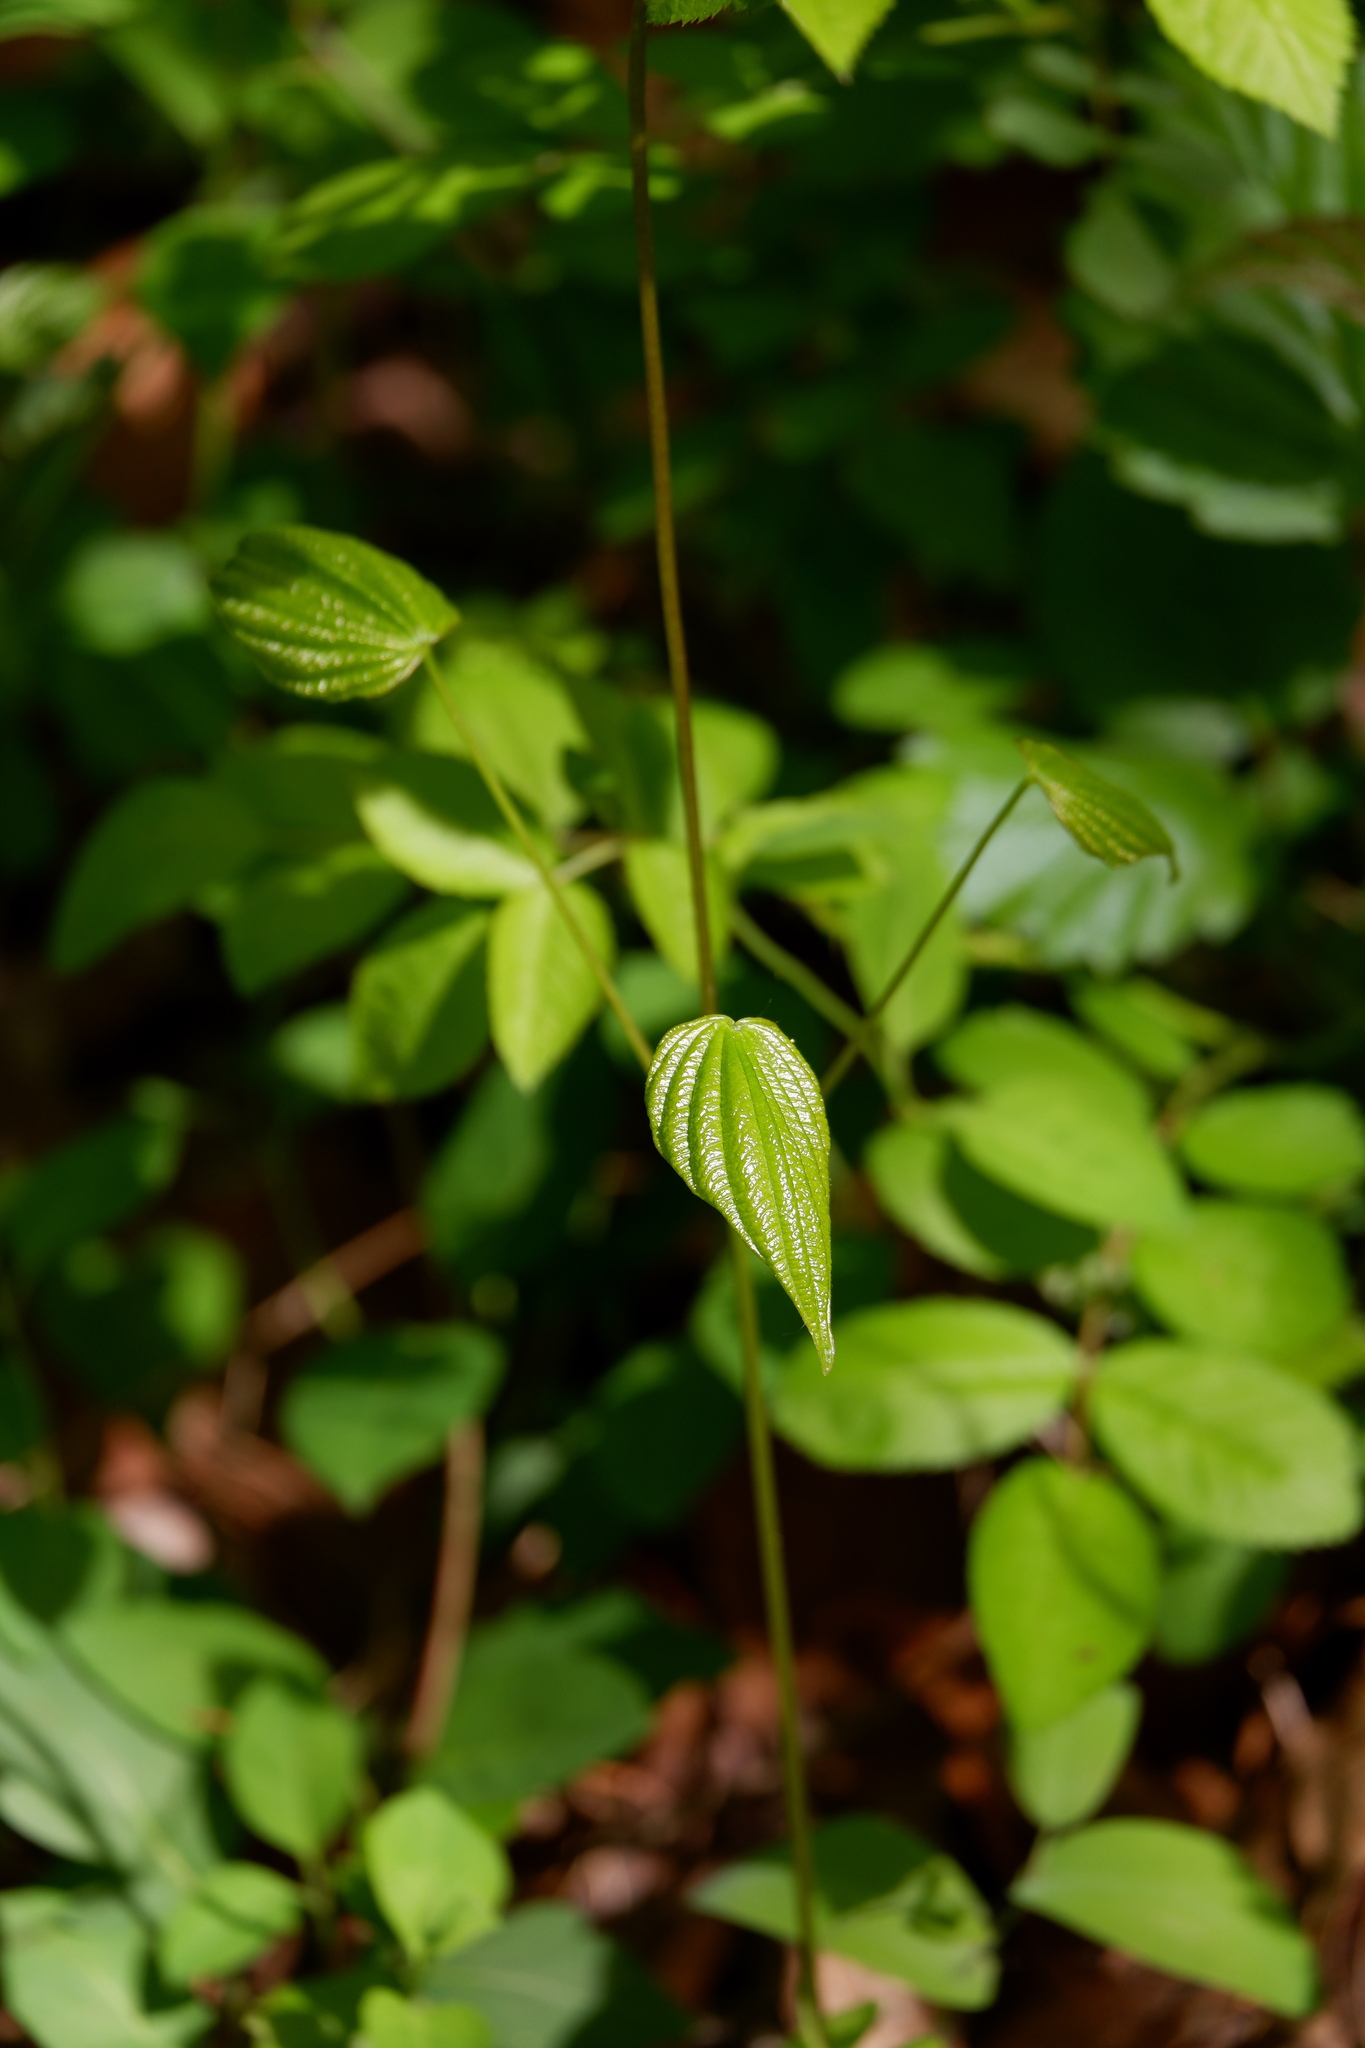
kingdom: Plantae
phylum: Tracheophyta
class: Liliopsida
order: Dioscoreales
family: Dioscoreaceae
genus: Dioscorea
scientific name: Dioscorea villosa
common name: Wild yam
